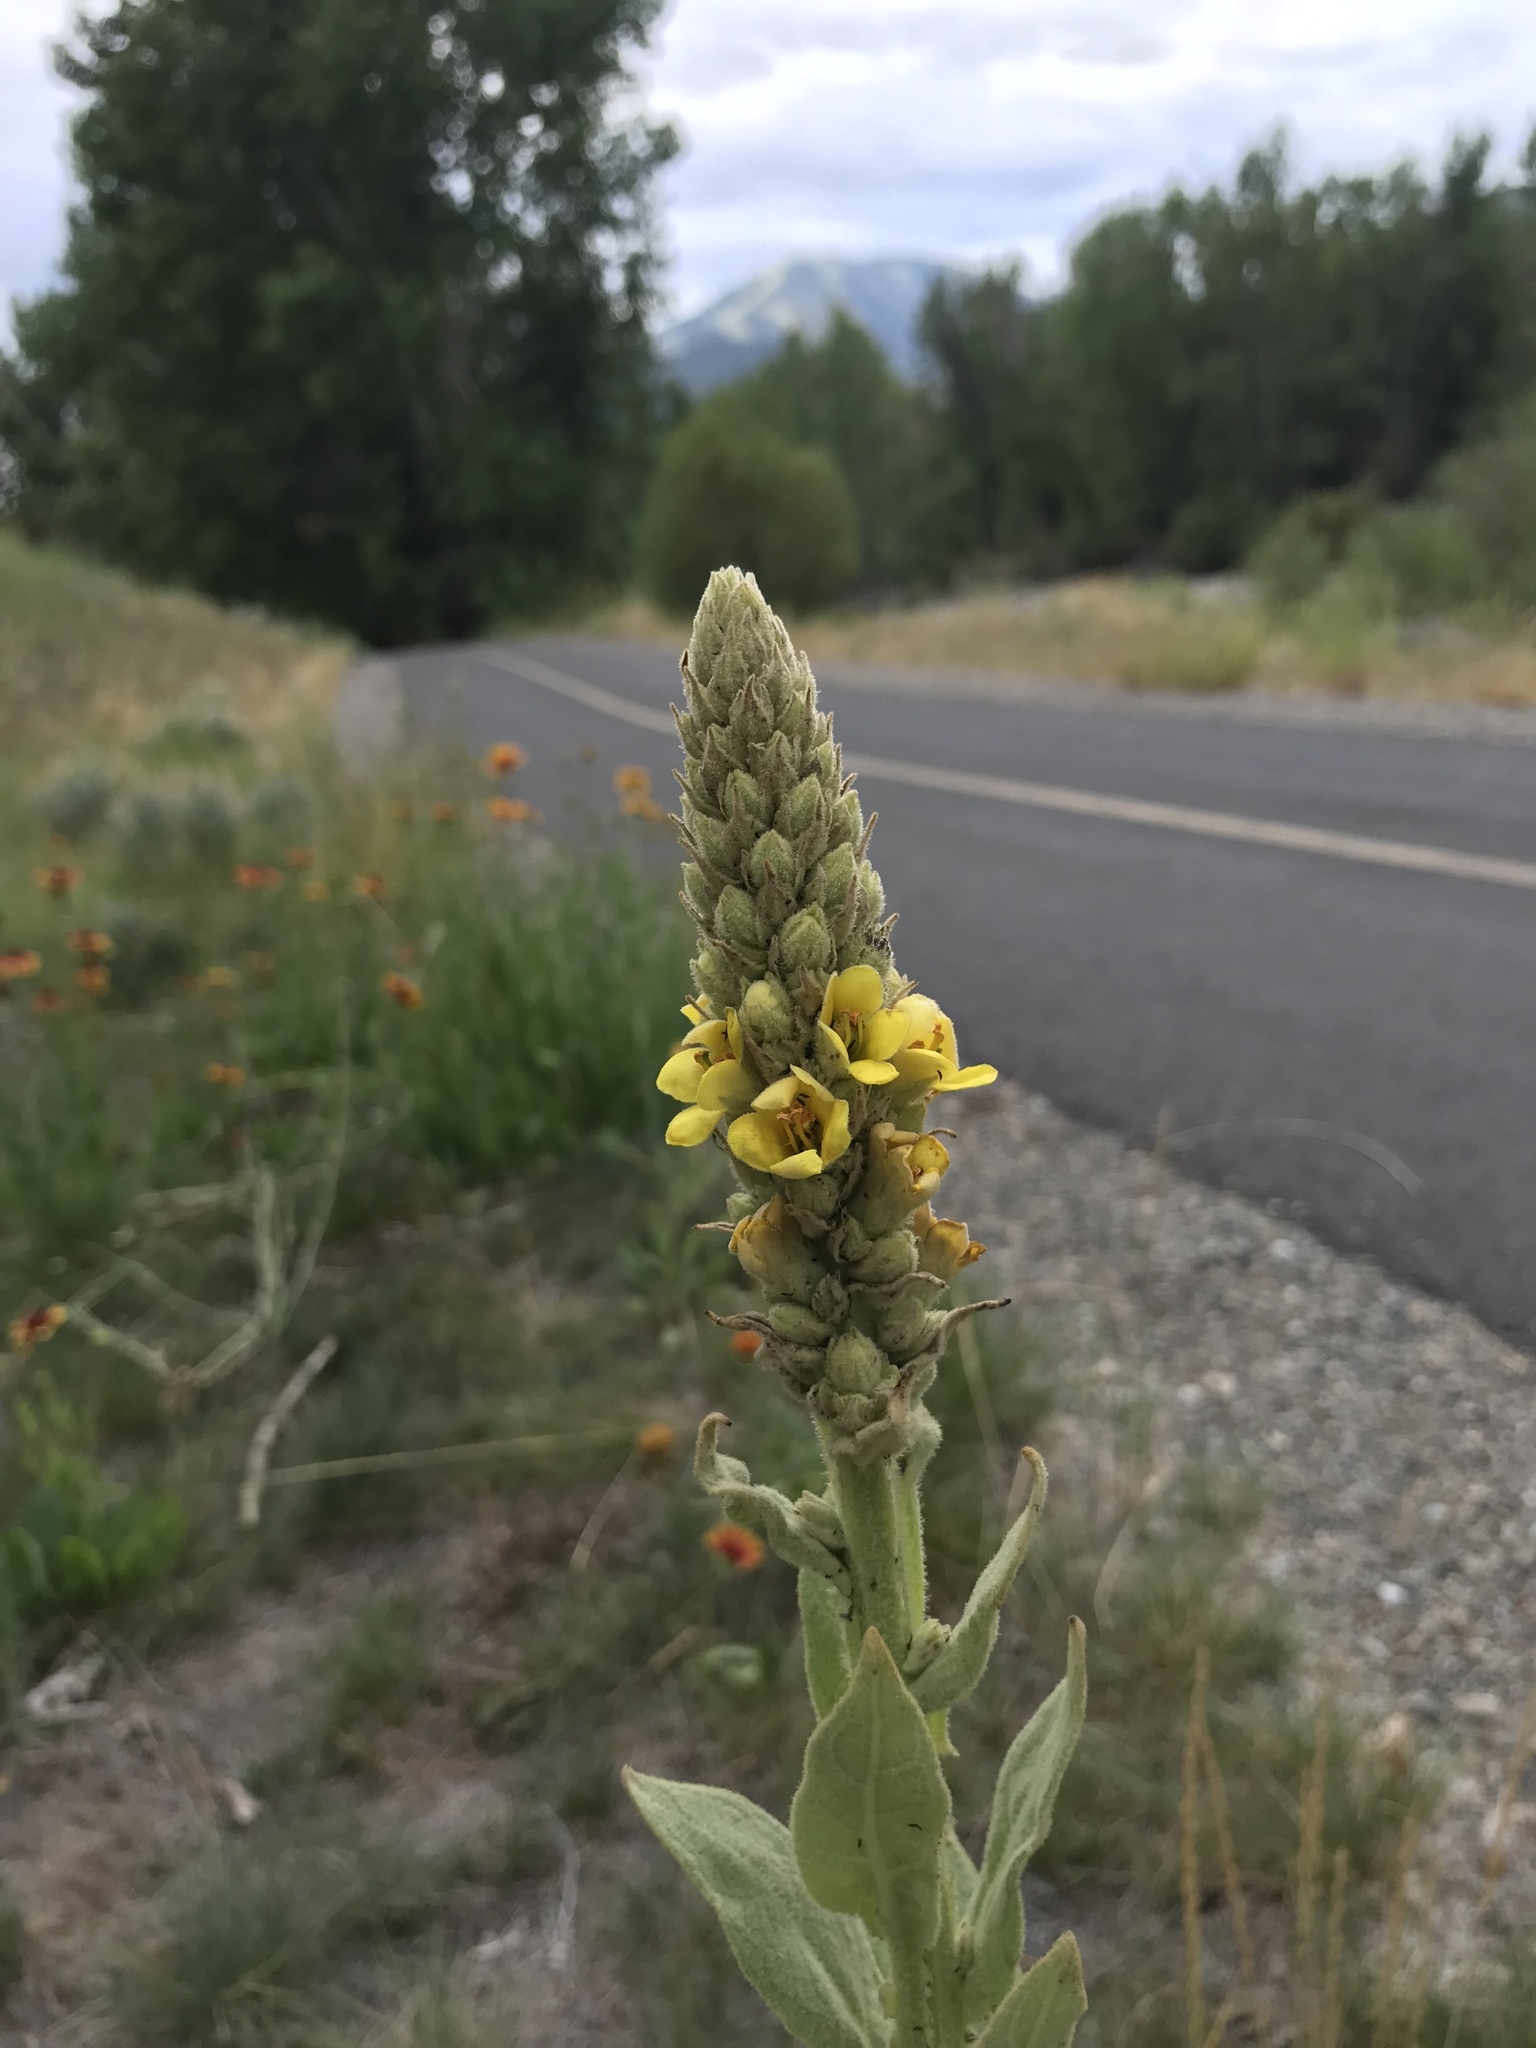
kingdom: Plantae
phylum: Tracheophyta
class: Magnoliopsida
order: Lamiales
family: Scrophulariaceae
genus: Verbascum
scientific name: Verbascum thapsus
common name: Common mullein
